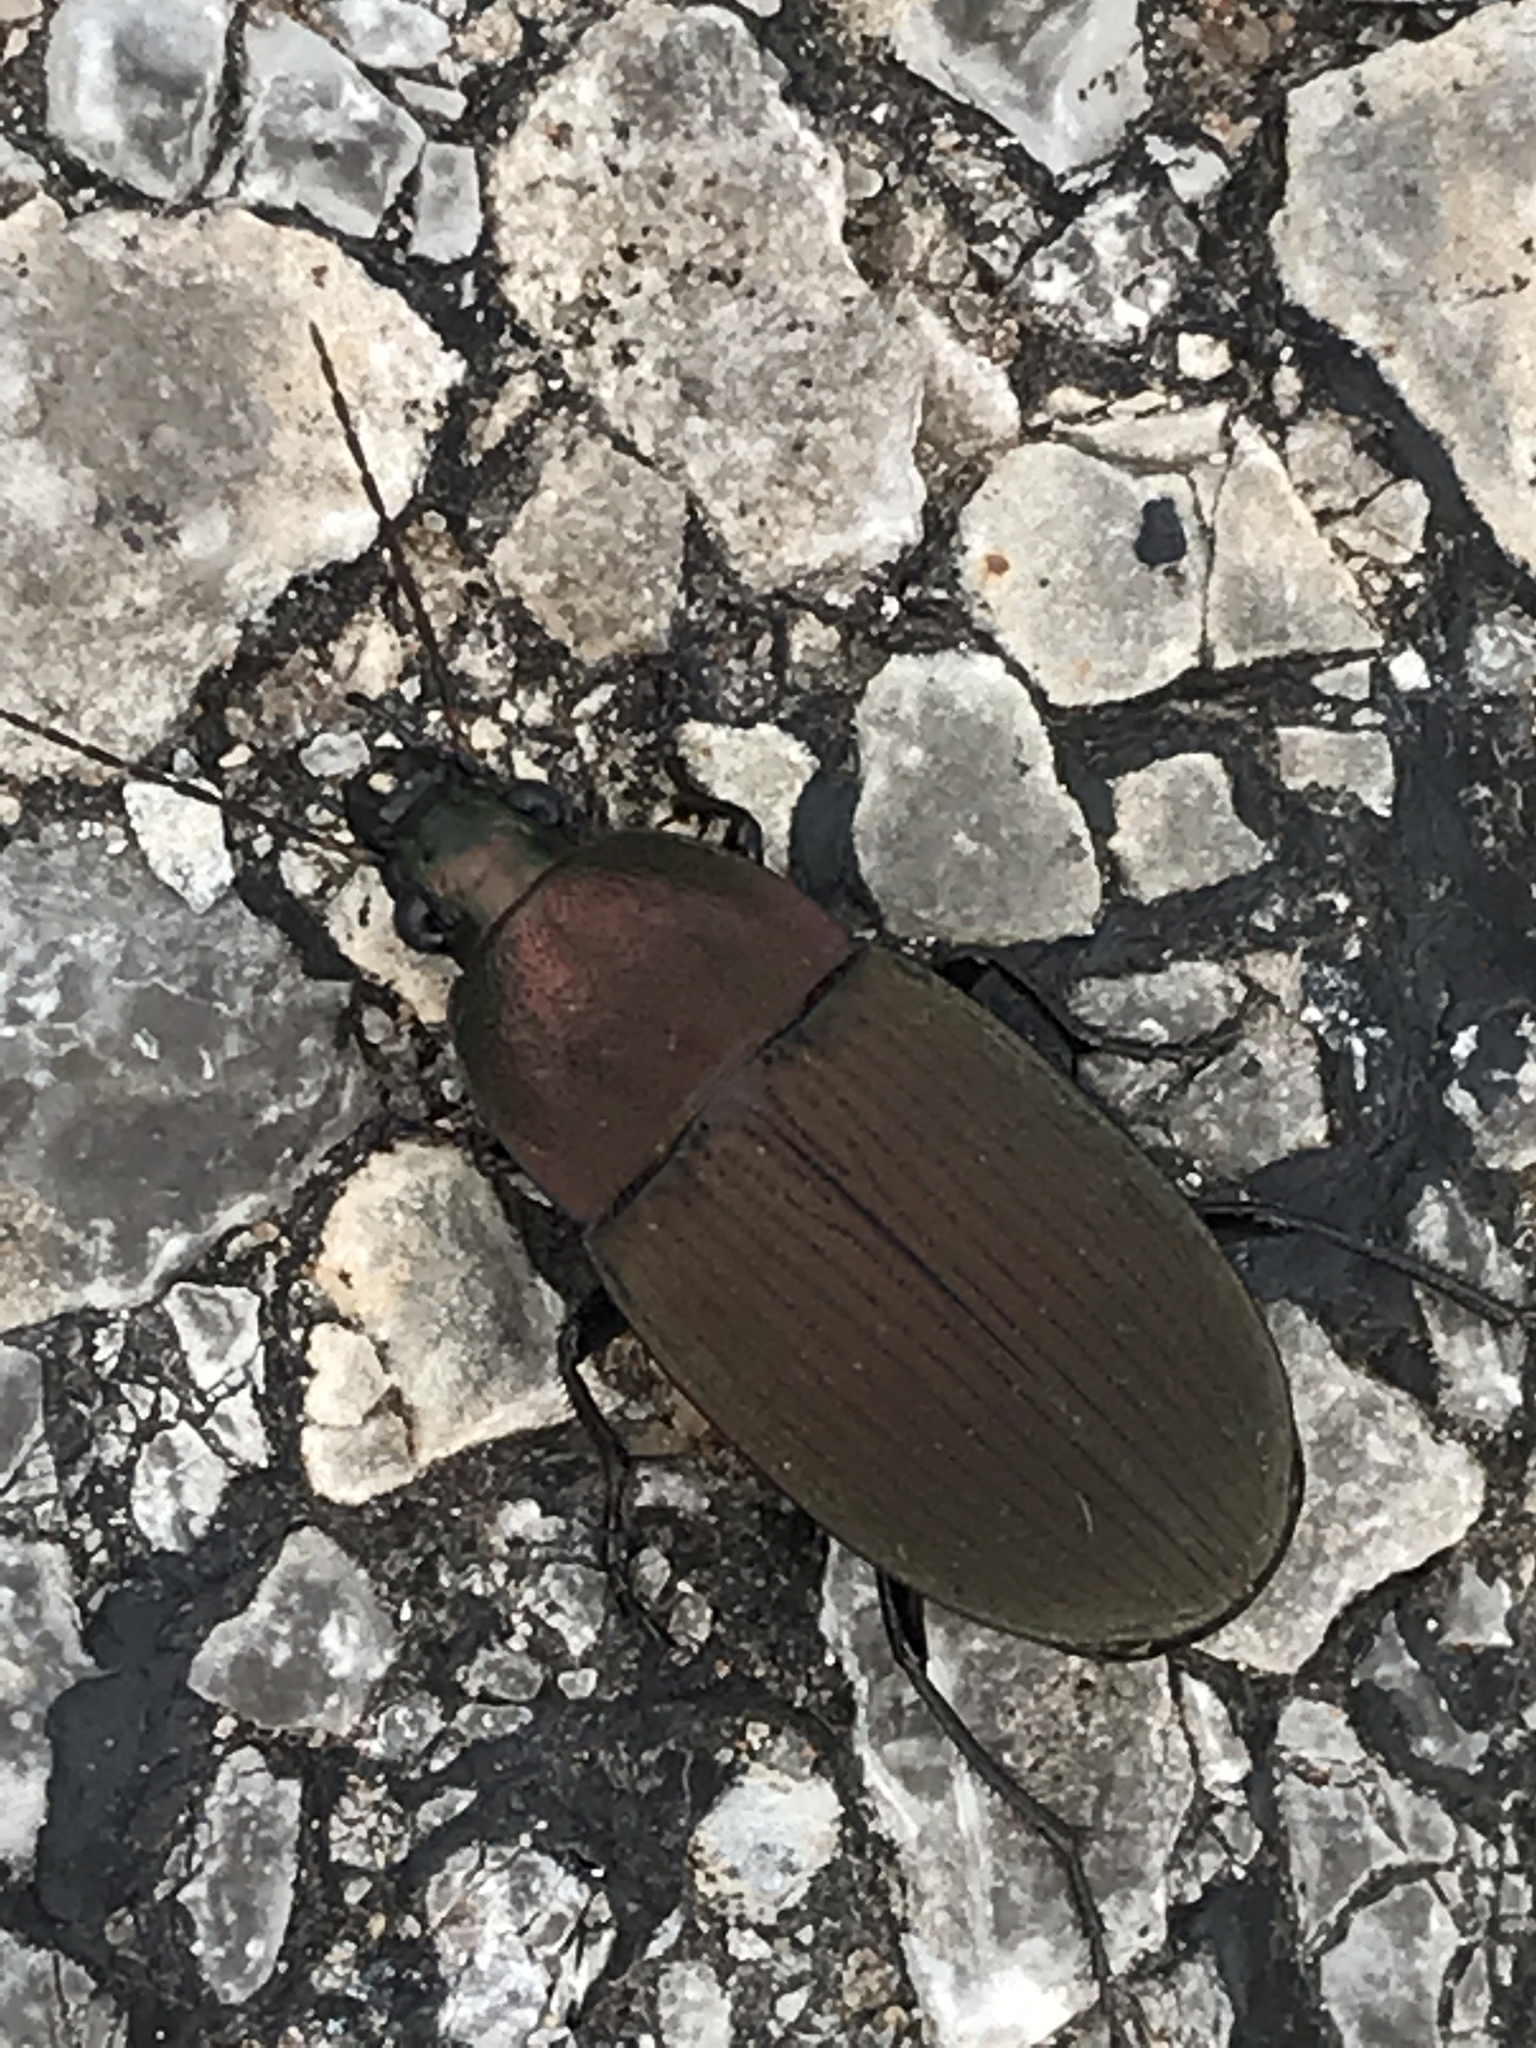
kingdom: Animalia
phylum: Arthropoda
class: Insecta
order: Coleoptera
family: Carabidae
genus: Chlaenius
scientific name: Chlaenius tomentosus
